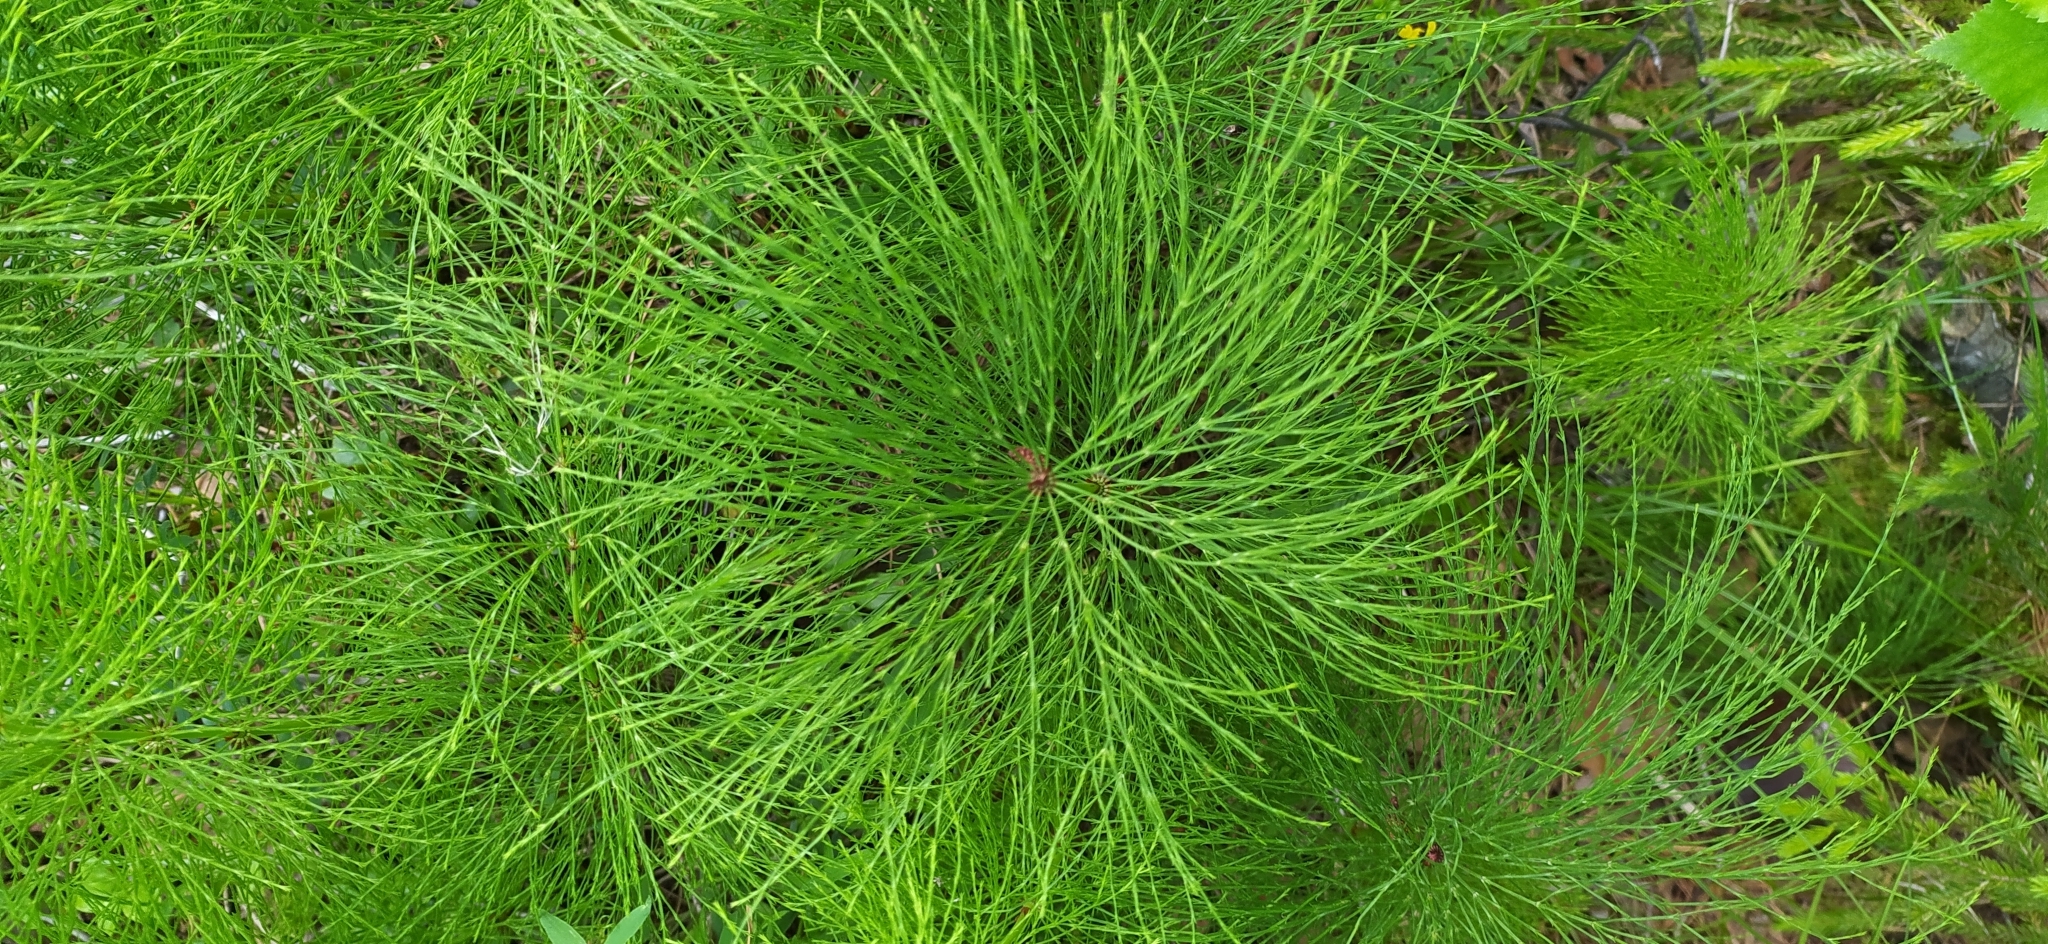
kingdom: Plantae
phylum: Tracheophyta
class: Polypodiopsida
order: Equisetales
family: Equisetaceae
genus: Equisetum
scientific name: Equisetum sylvaticum
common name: Wood horsetail
